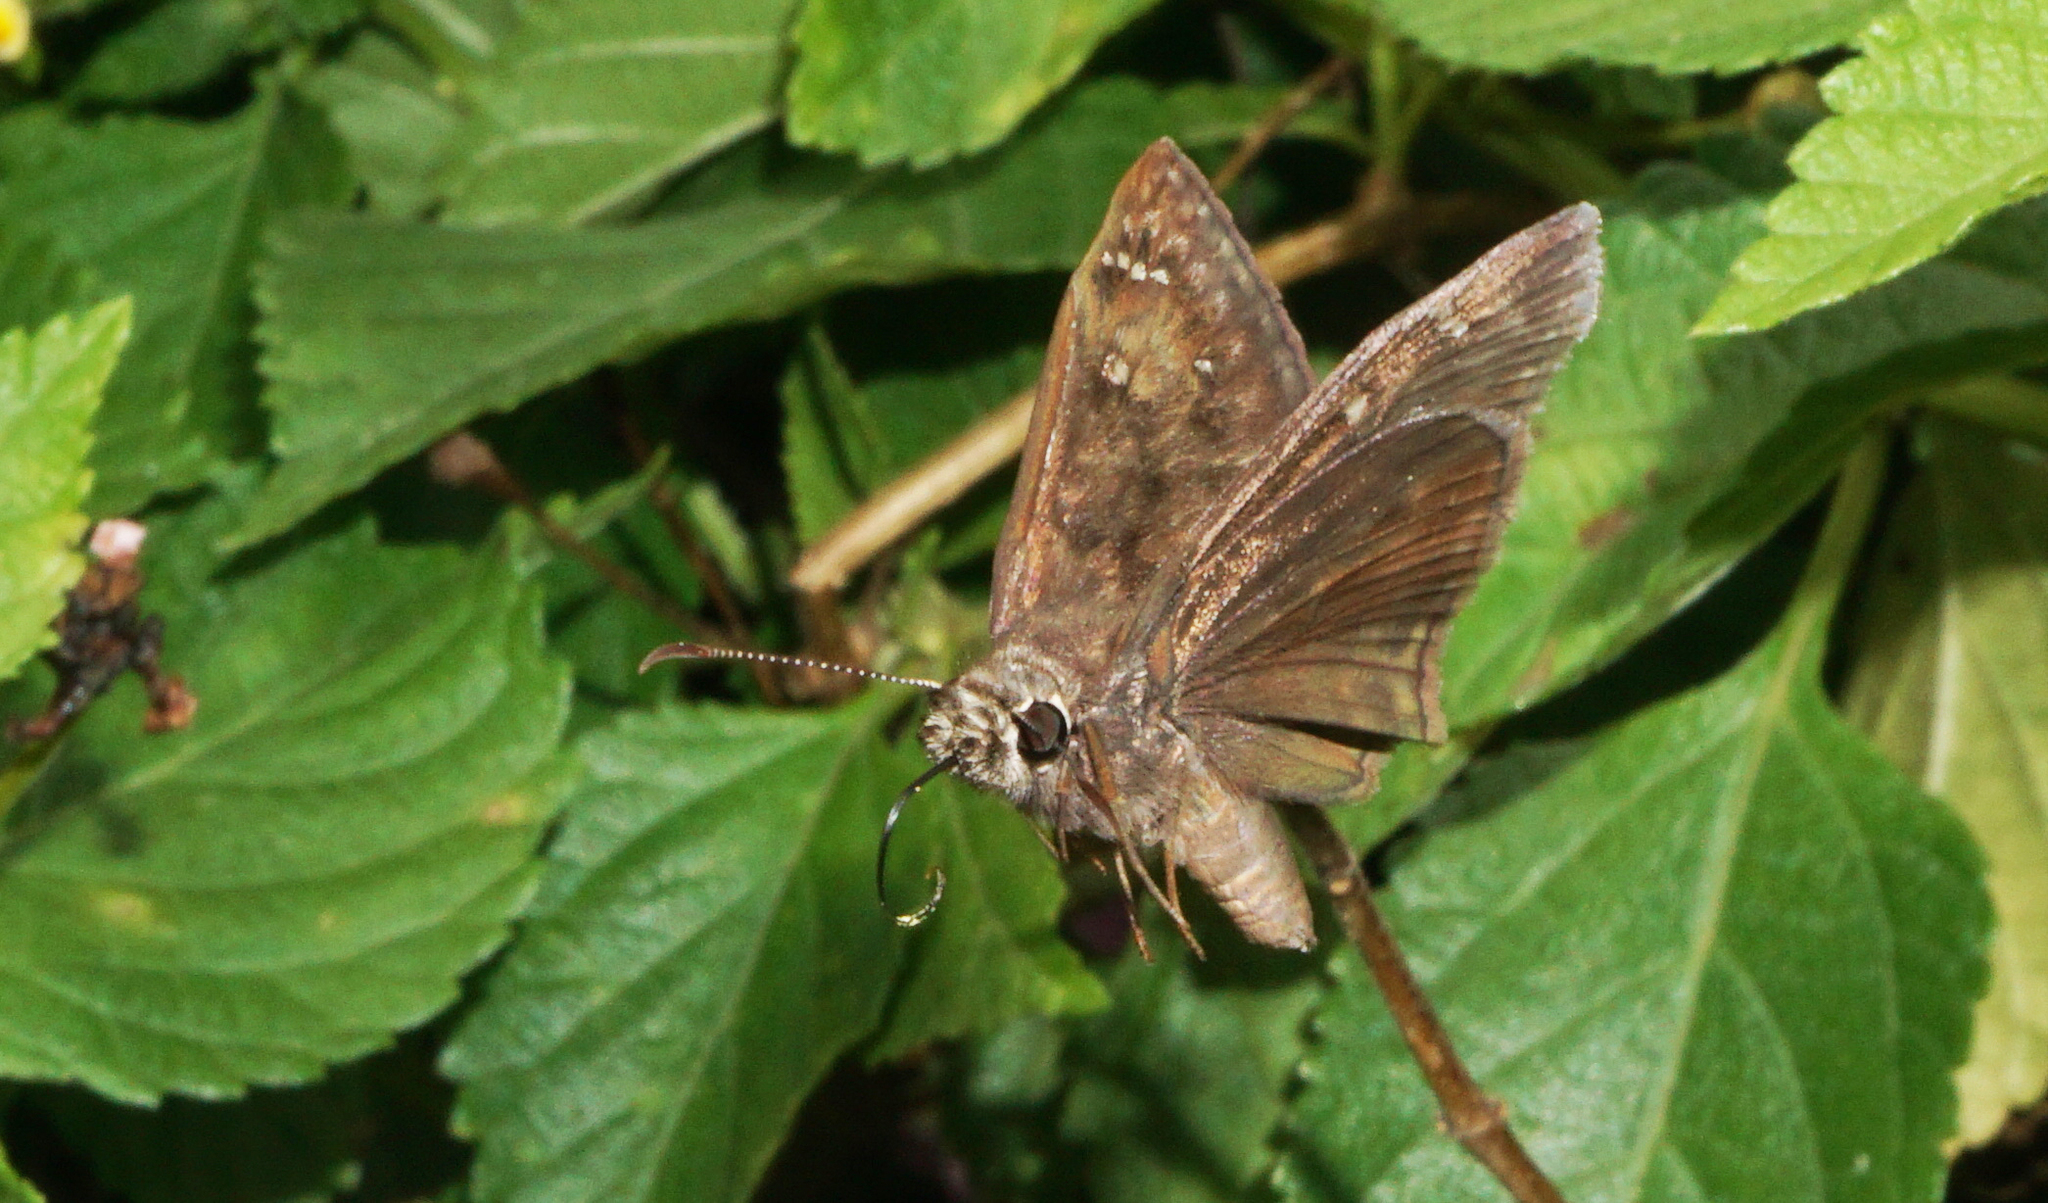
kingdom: Animalia
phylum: Arthropoda
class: Insecta
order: Lepidoptera
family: Hesperiidae
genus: Erynnis
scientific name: Erynnis horatius
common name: Horace's duskywing
